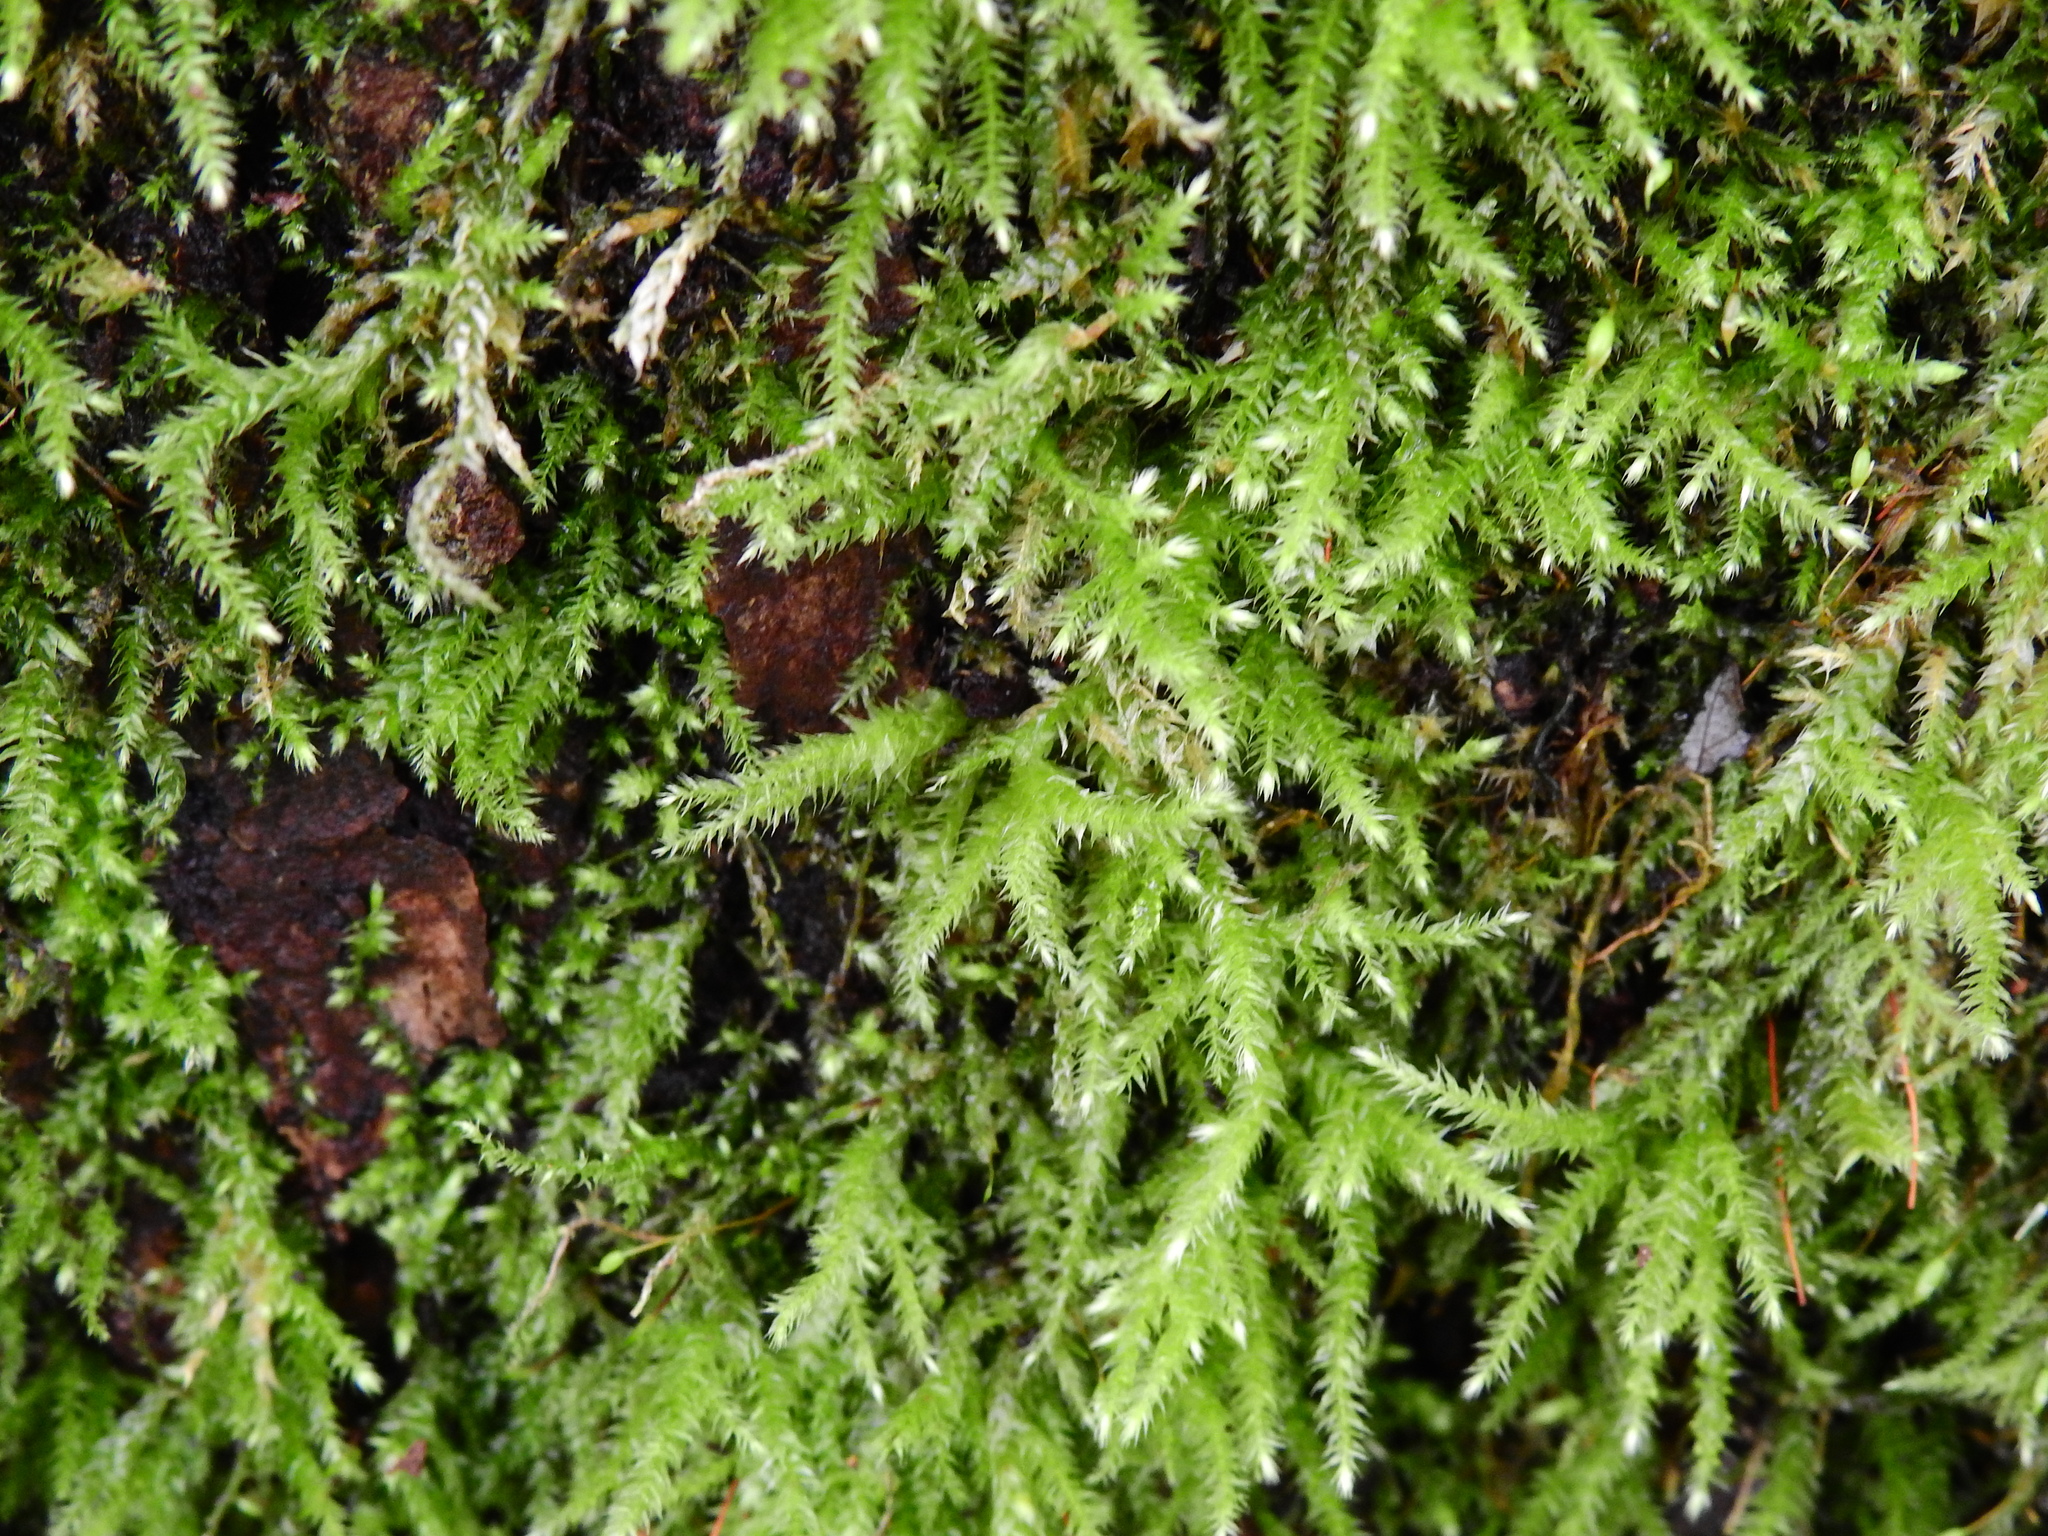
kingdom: Plantae
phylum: Bryophyta
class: Bryopsida
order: Hypnales
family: Brachytheciaceae
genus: Kindbergia
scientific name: Kindbergia praelonga
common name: Slender beaked moss
